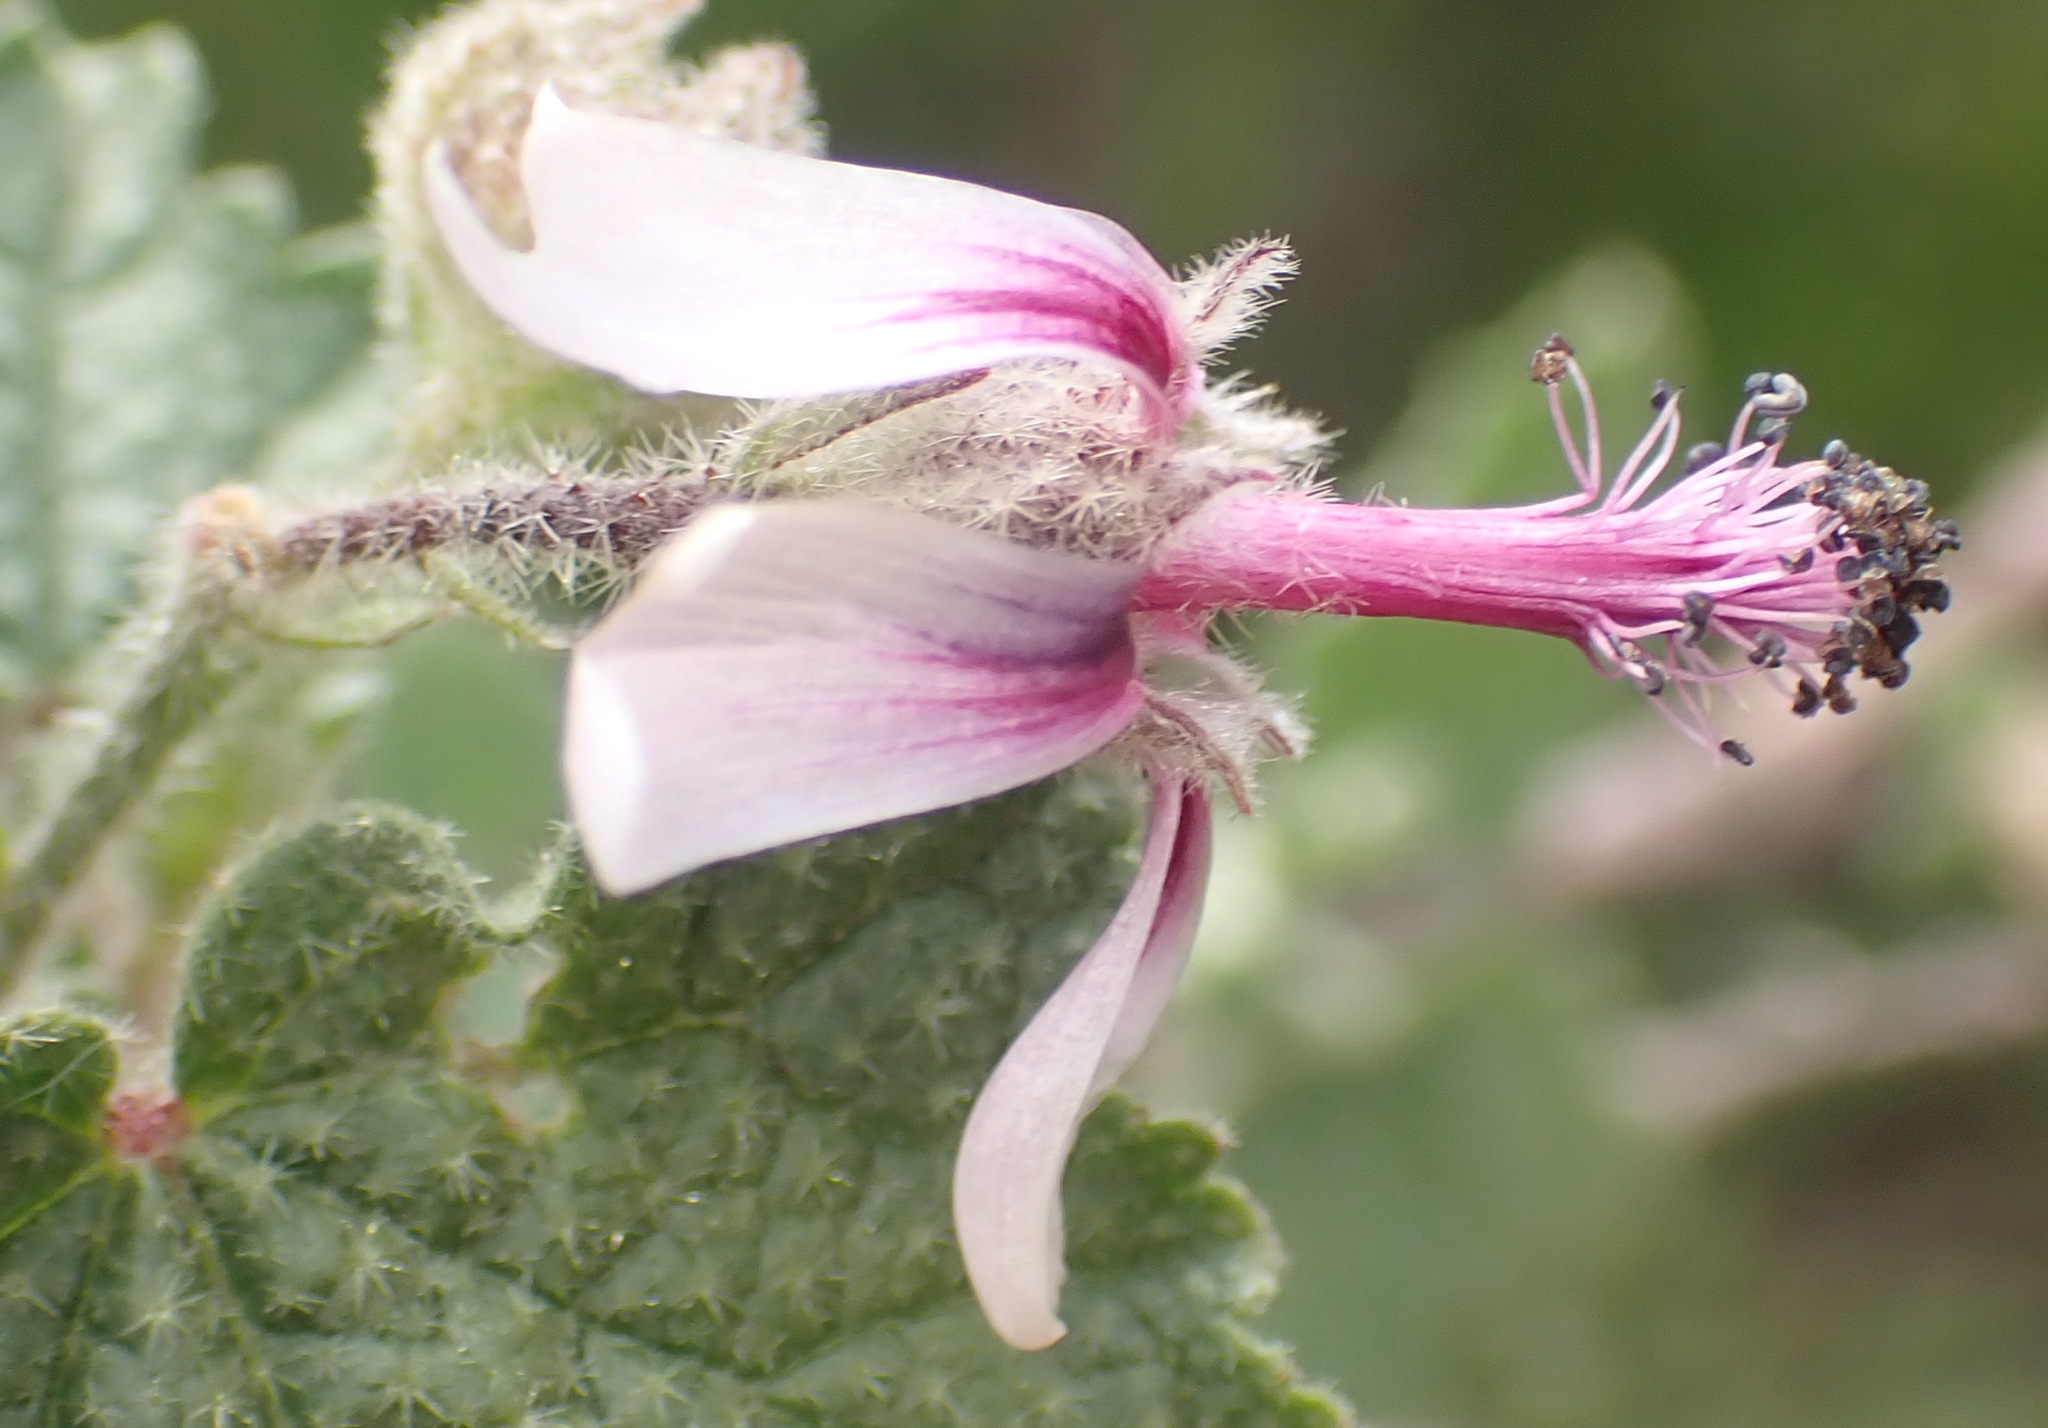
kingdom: Plantae
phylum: Tracheophyta
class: Magnoliopsida
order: Malvales
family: Malvaceae
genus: Anisodontea
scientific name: Anisodontea reflexa
